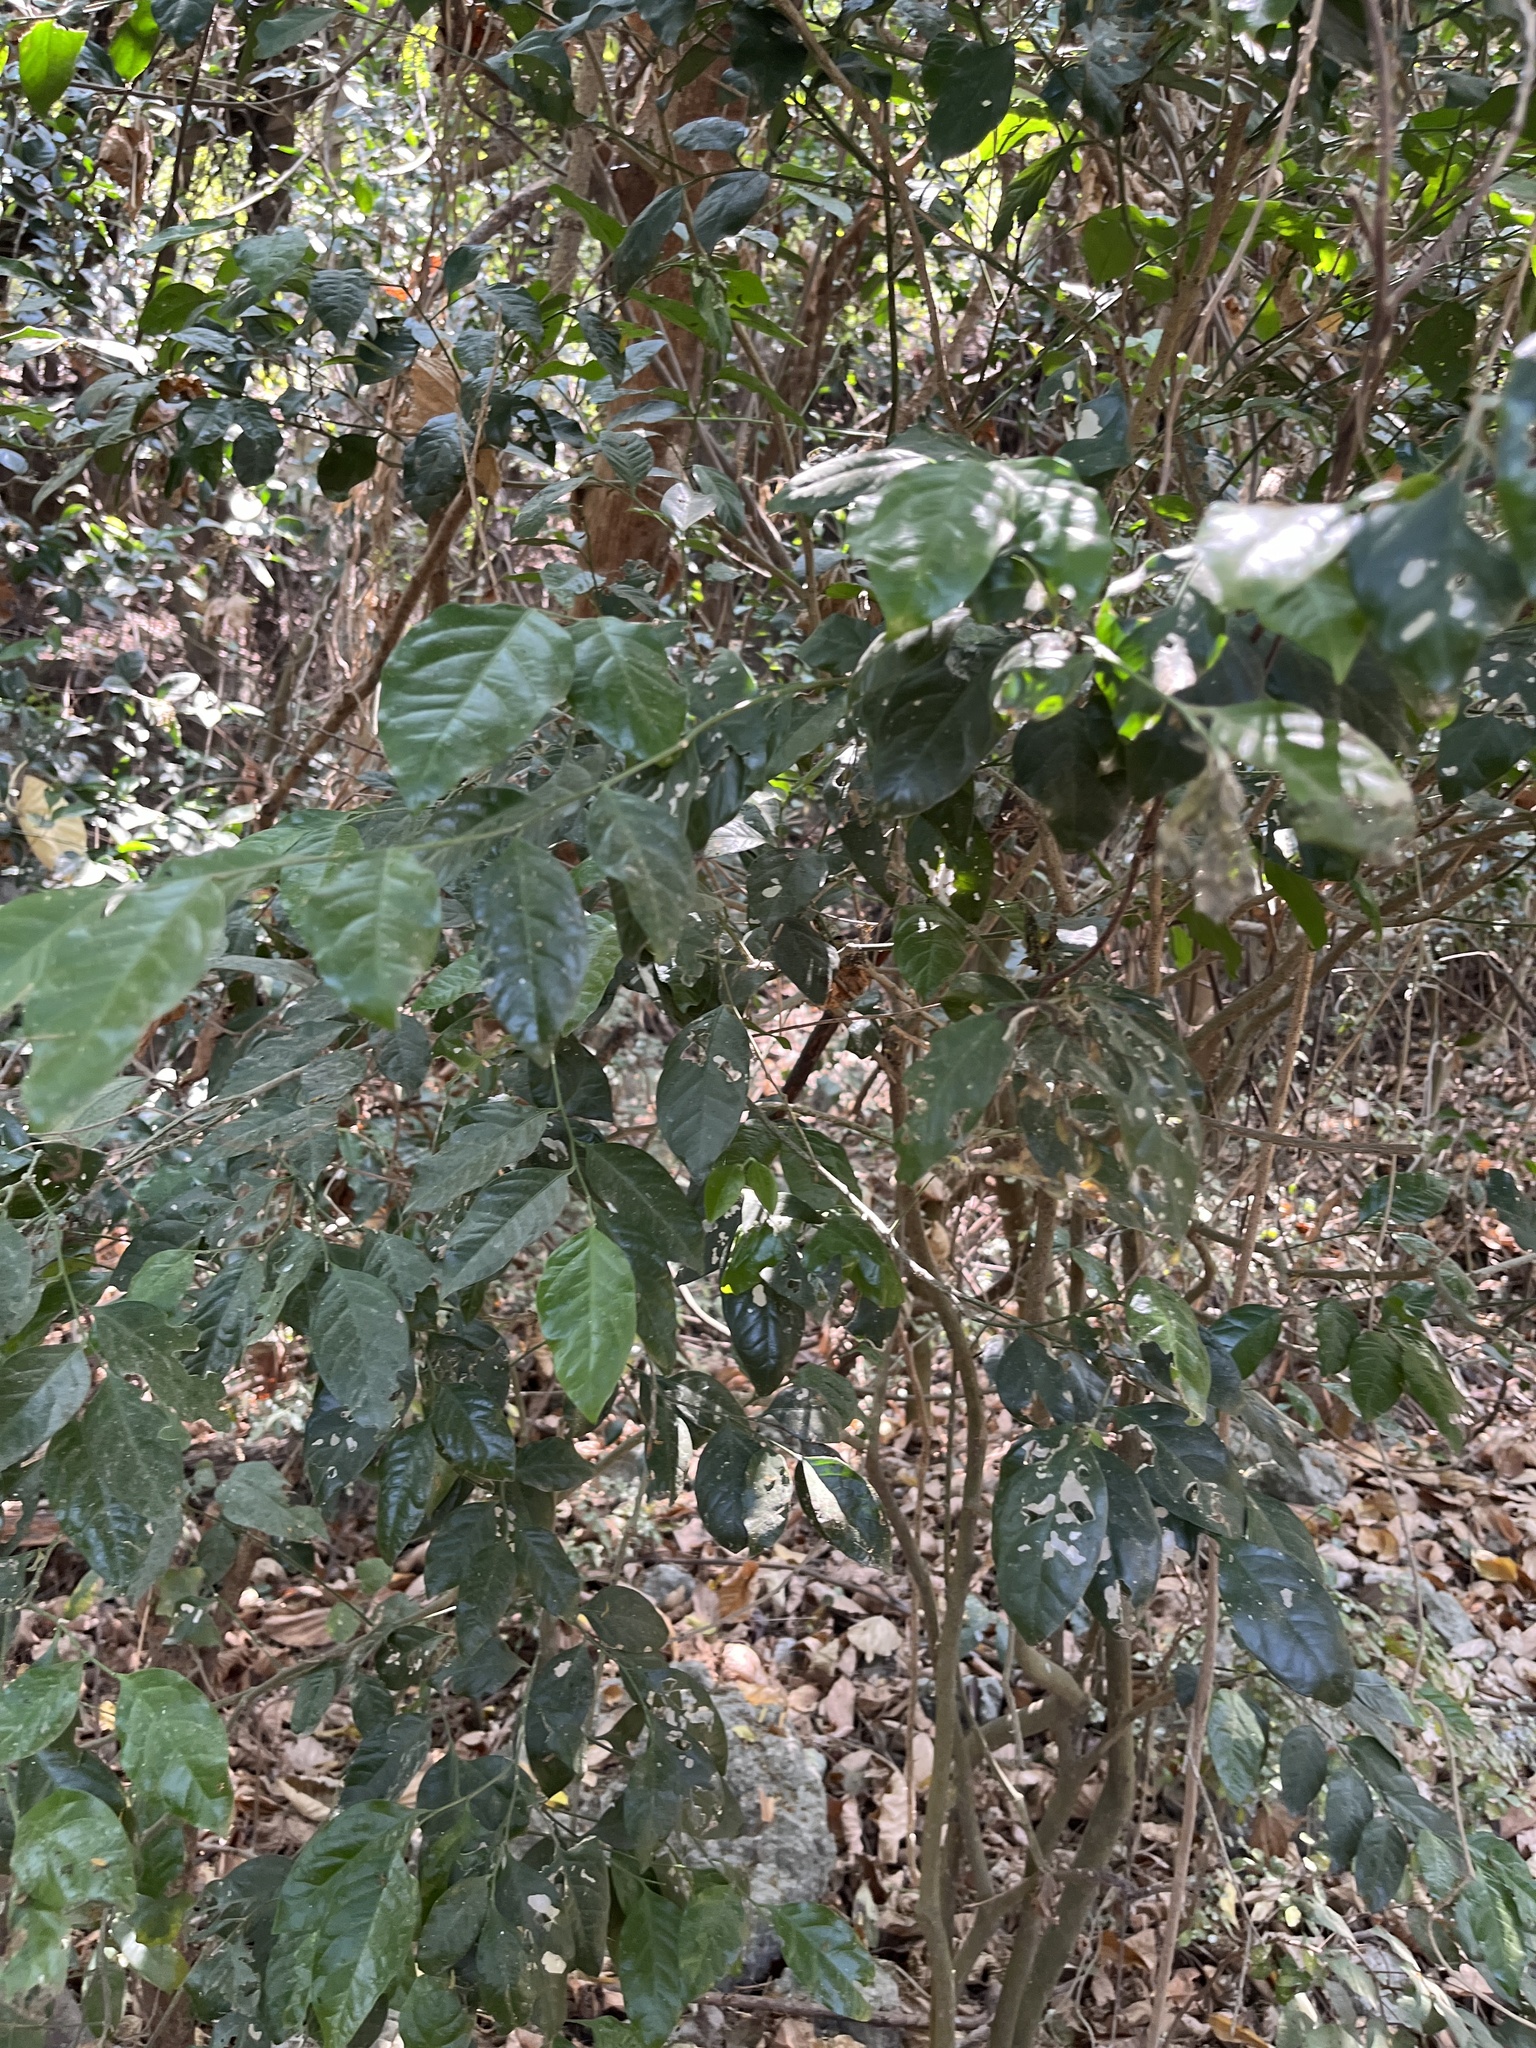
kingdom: Plantae
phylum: Tracheophyta
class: Magnoliopsida
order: Santalales
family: Opiliaceae
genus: Champereia
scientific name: Champereia manillana
